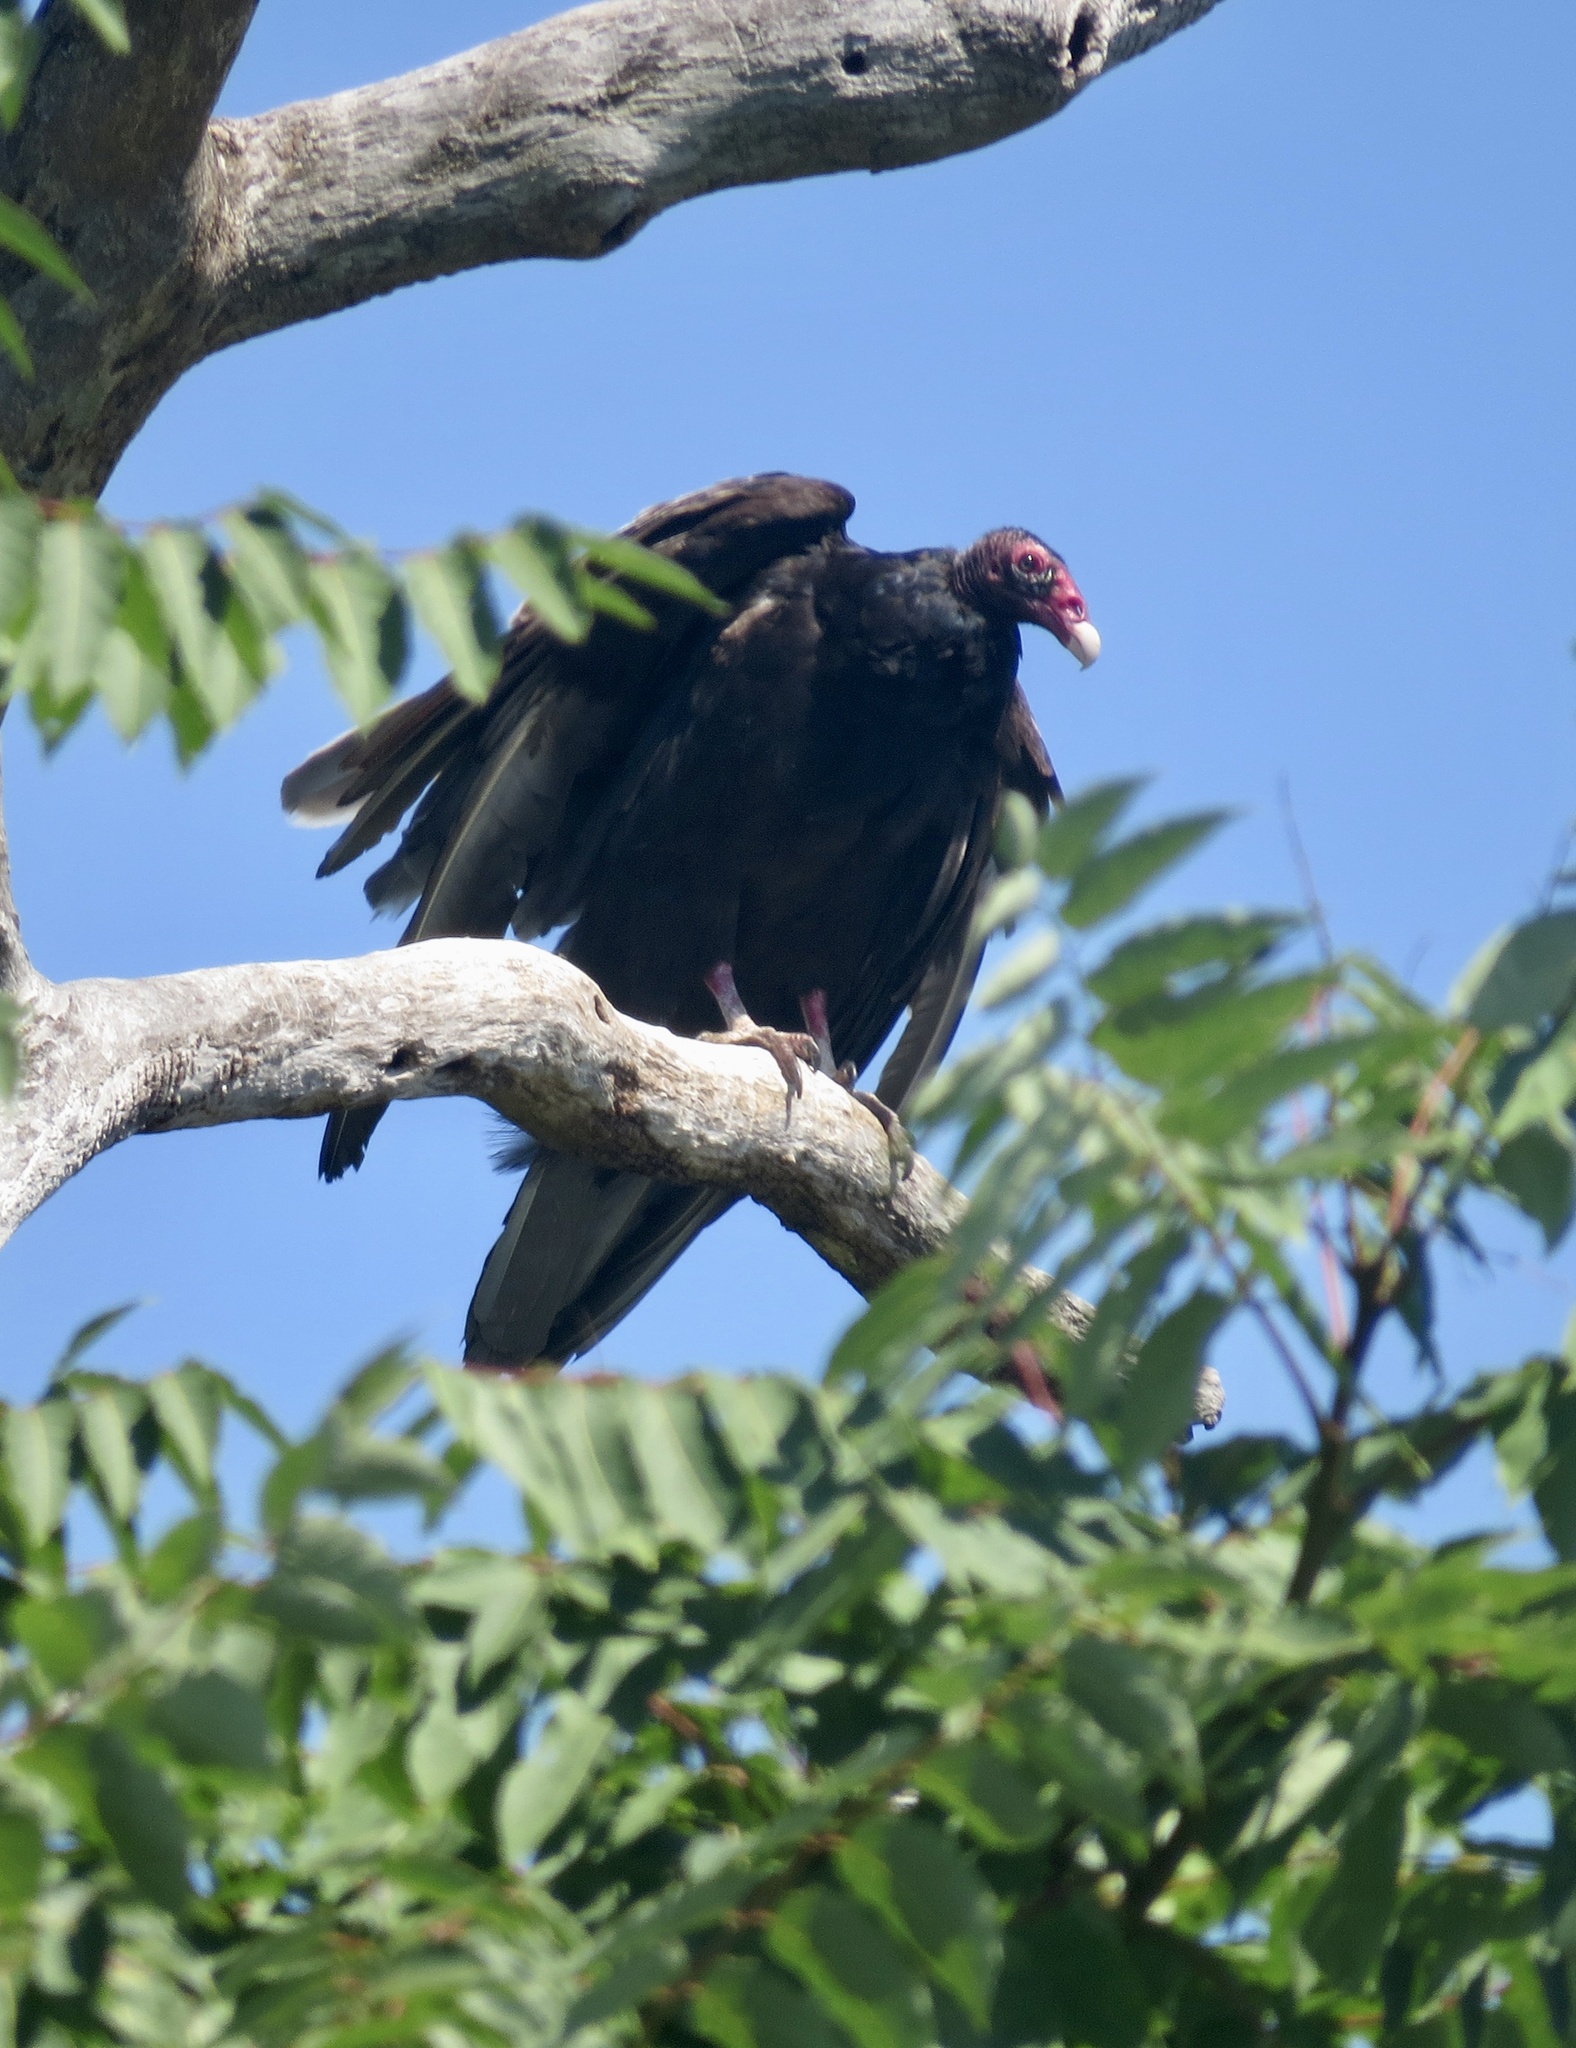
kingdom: Animalia
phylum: Chordata
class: Aves
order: Accipitriformes
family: Cathartidae
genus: Cathartes
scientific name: Cathartes aura
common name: Turkey vulture
